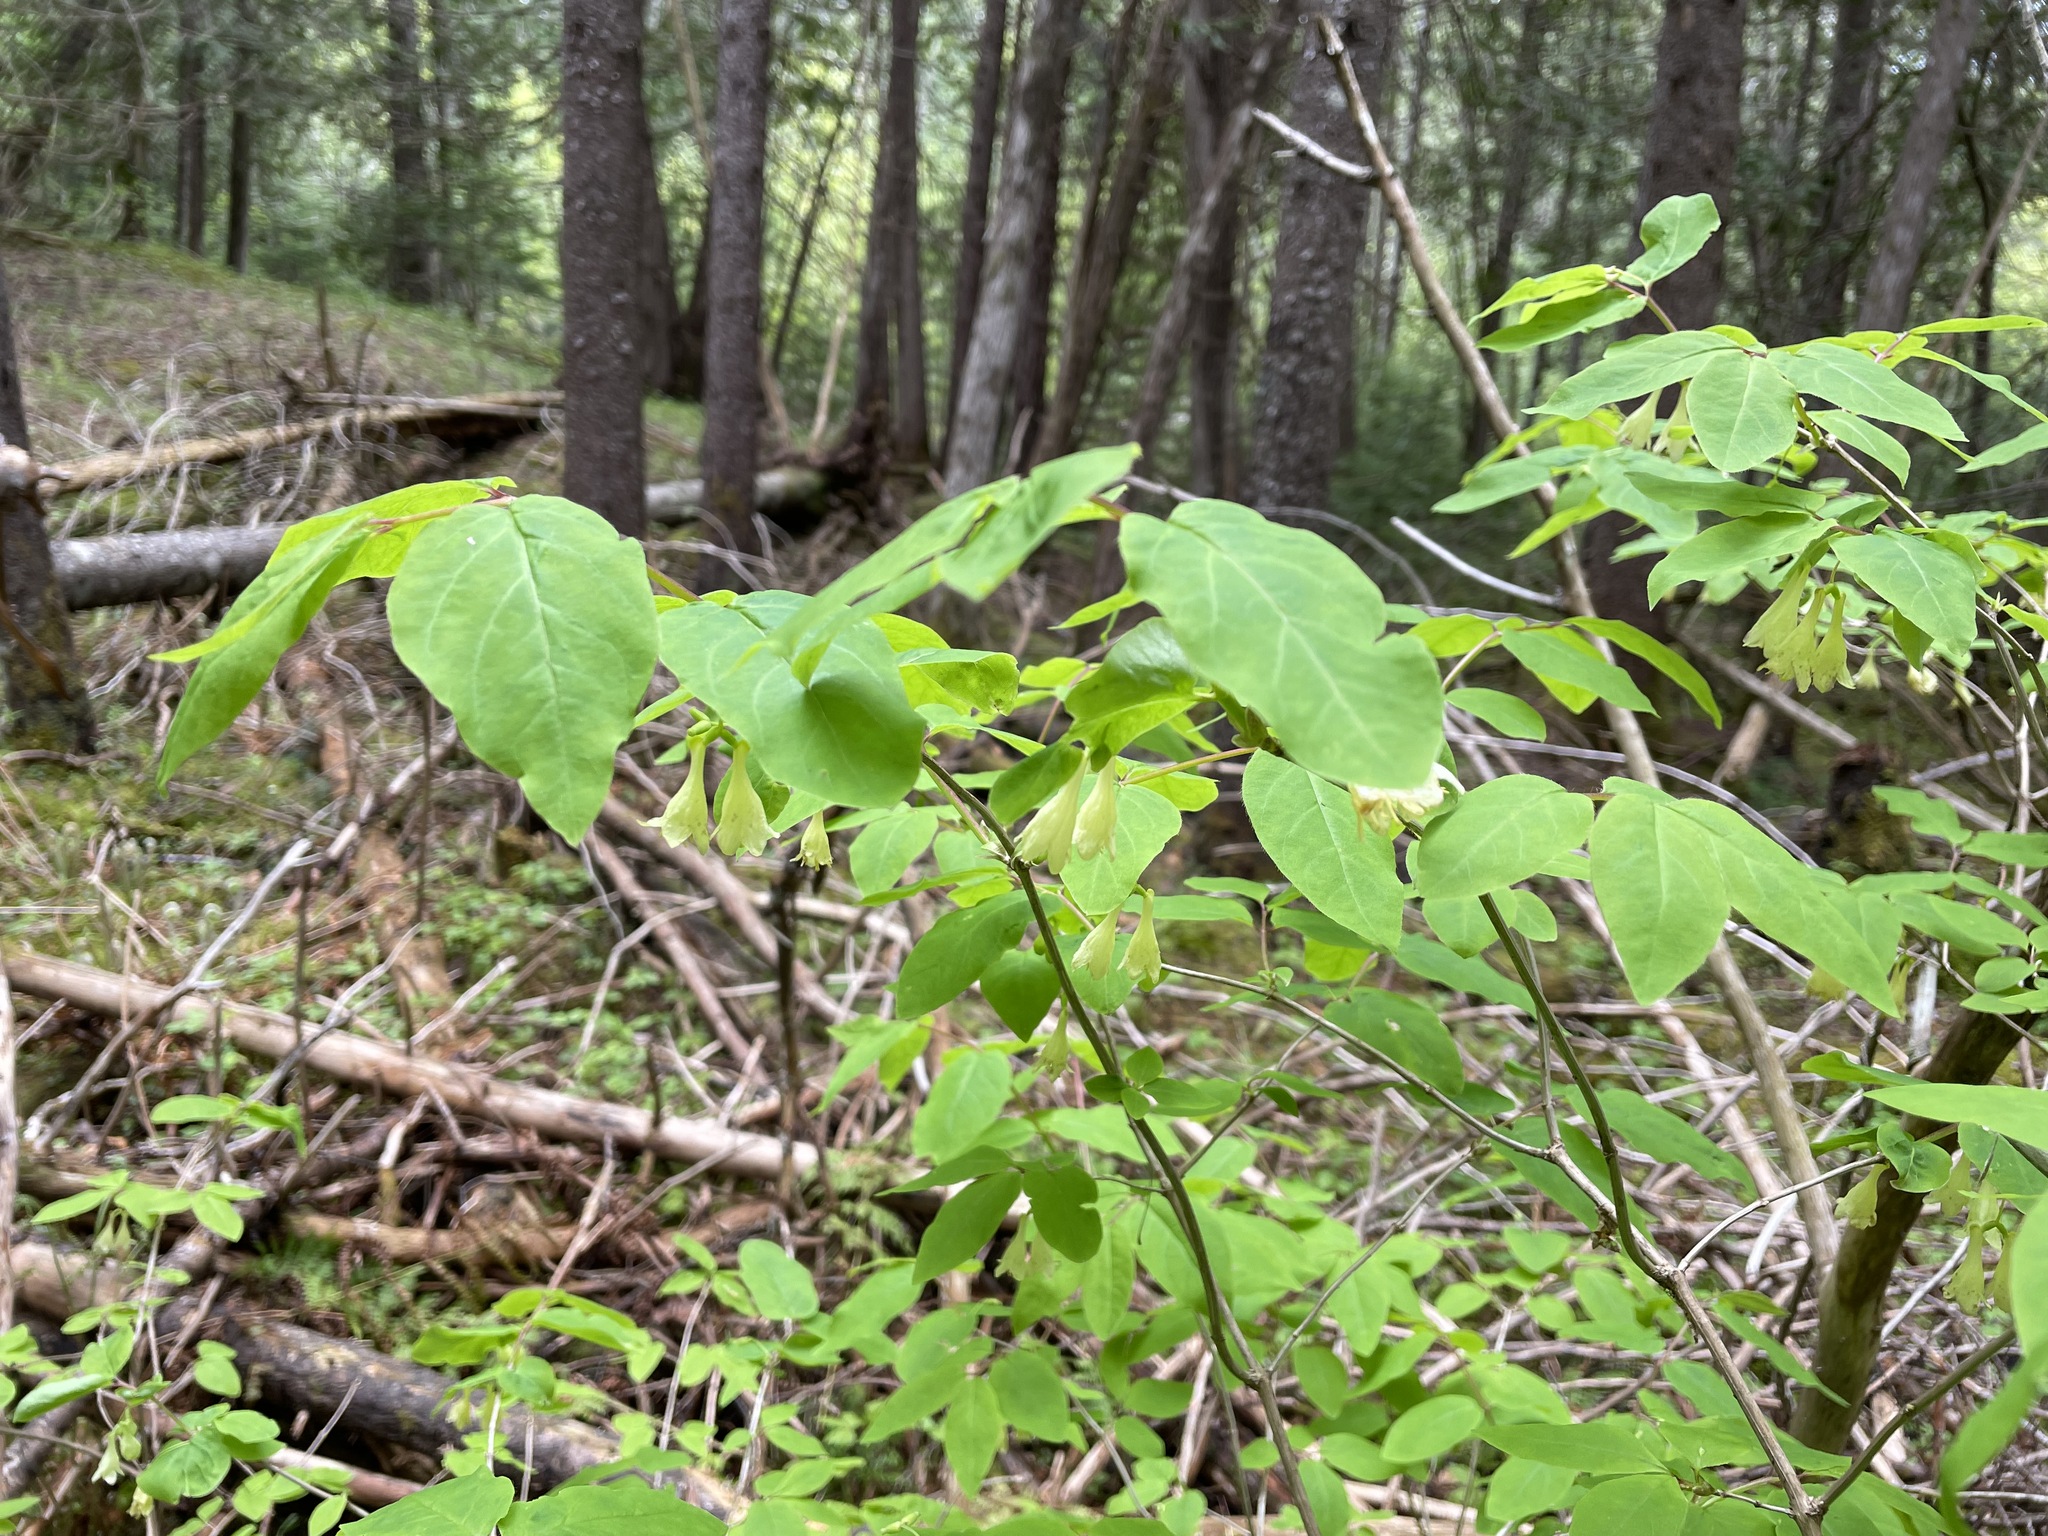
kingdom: Plantae
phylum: Tracheophyta
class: Magnoliopsida
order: Dipsacales
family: Caprifoliaceae
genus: Lonicera
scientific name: Lonicera canadensis
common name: American fly-honeysuckle
